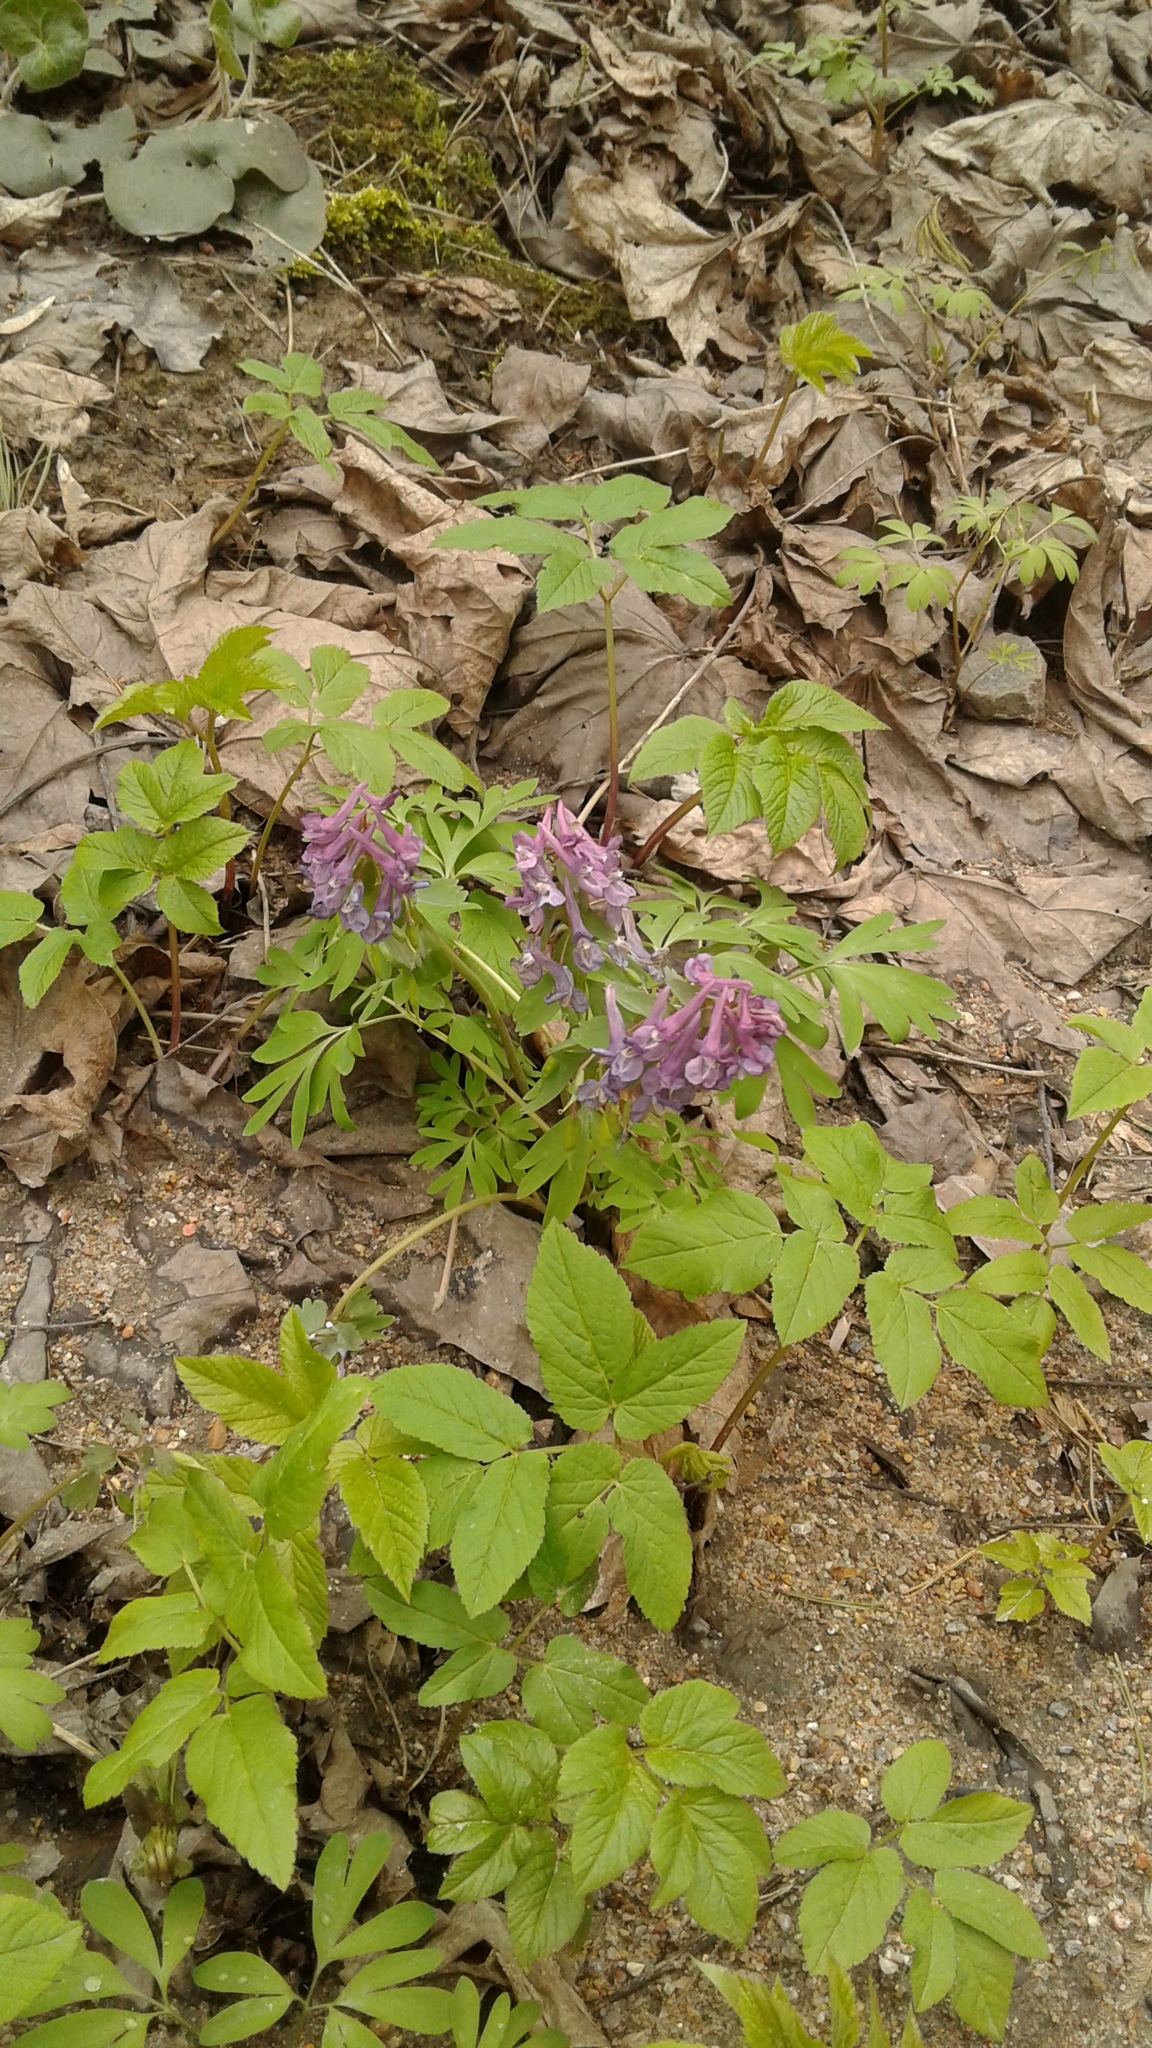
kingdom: Plantae
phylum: Tracheophyta
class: Magnoliopsida
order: Ranunculales
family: Papaveraceae
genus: Corydalis
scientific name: Corydalis solida
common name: Bird-in-a-bush
